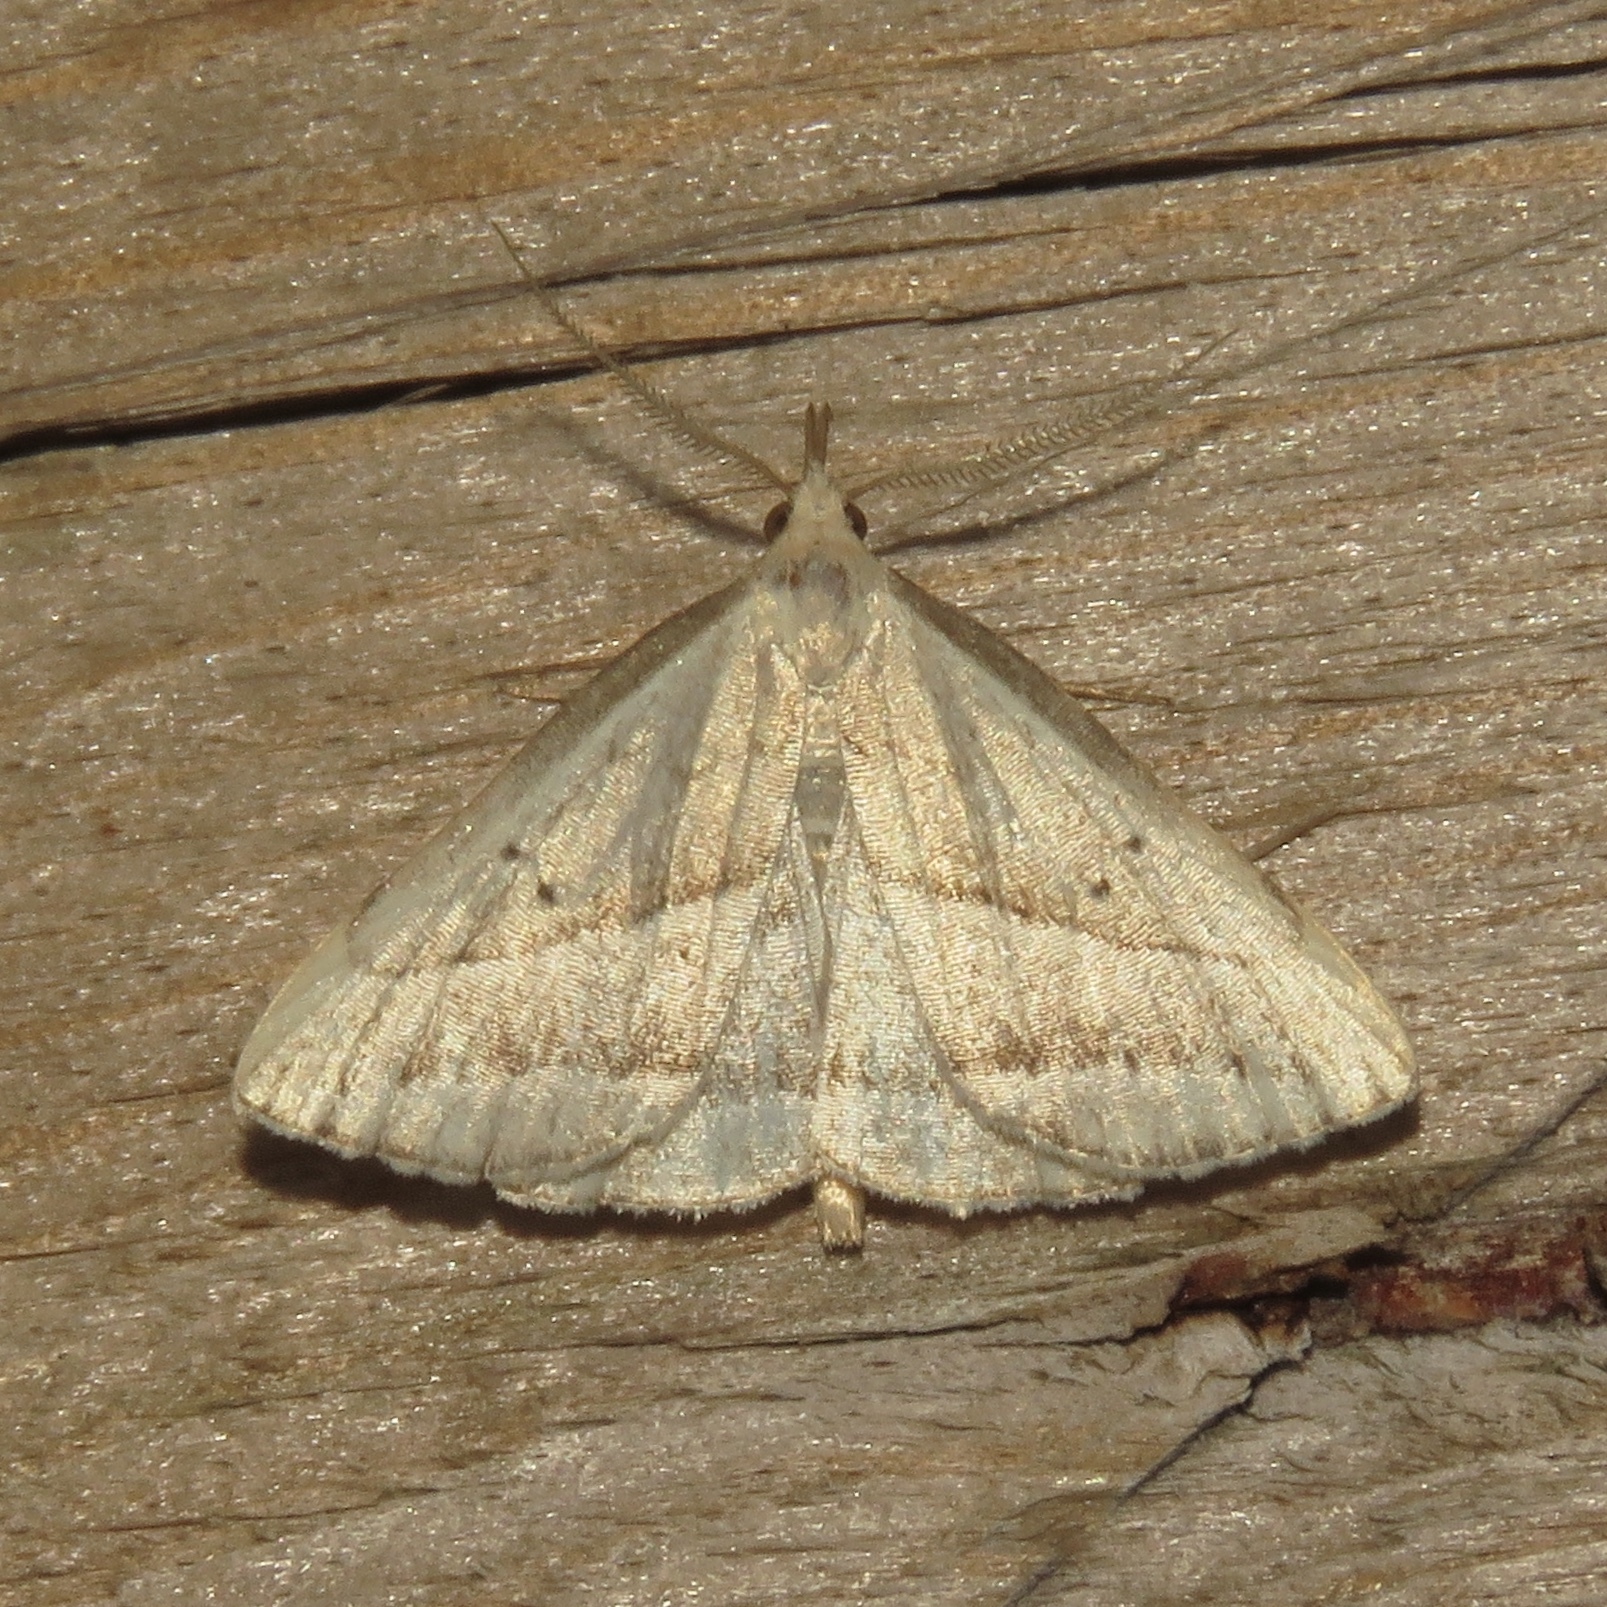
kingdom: Animalia
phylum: Arthropoda
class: Insecta
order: Lepidoptera
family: Erebidae
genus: Macrochilo
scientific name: Macrochilo absorptalis
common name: Slant-lined owlet
